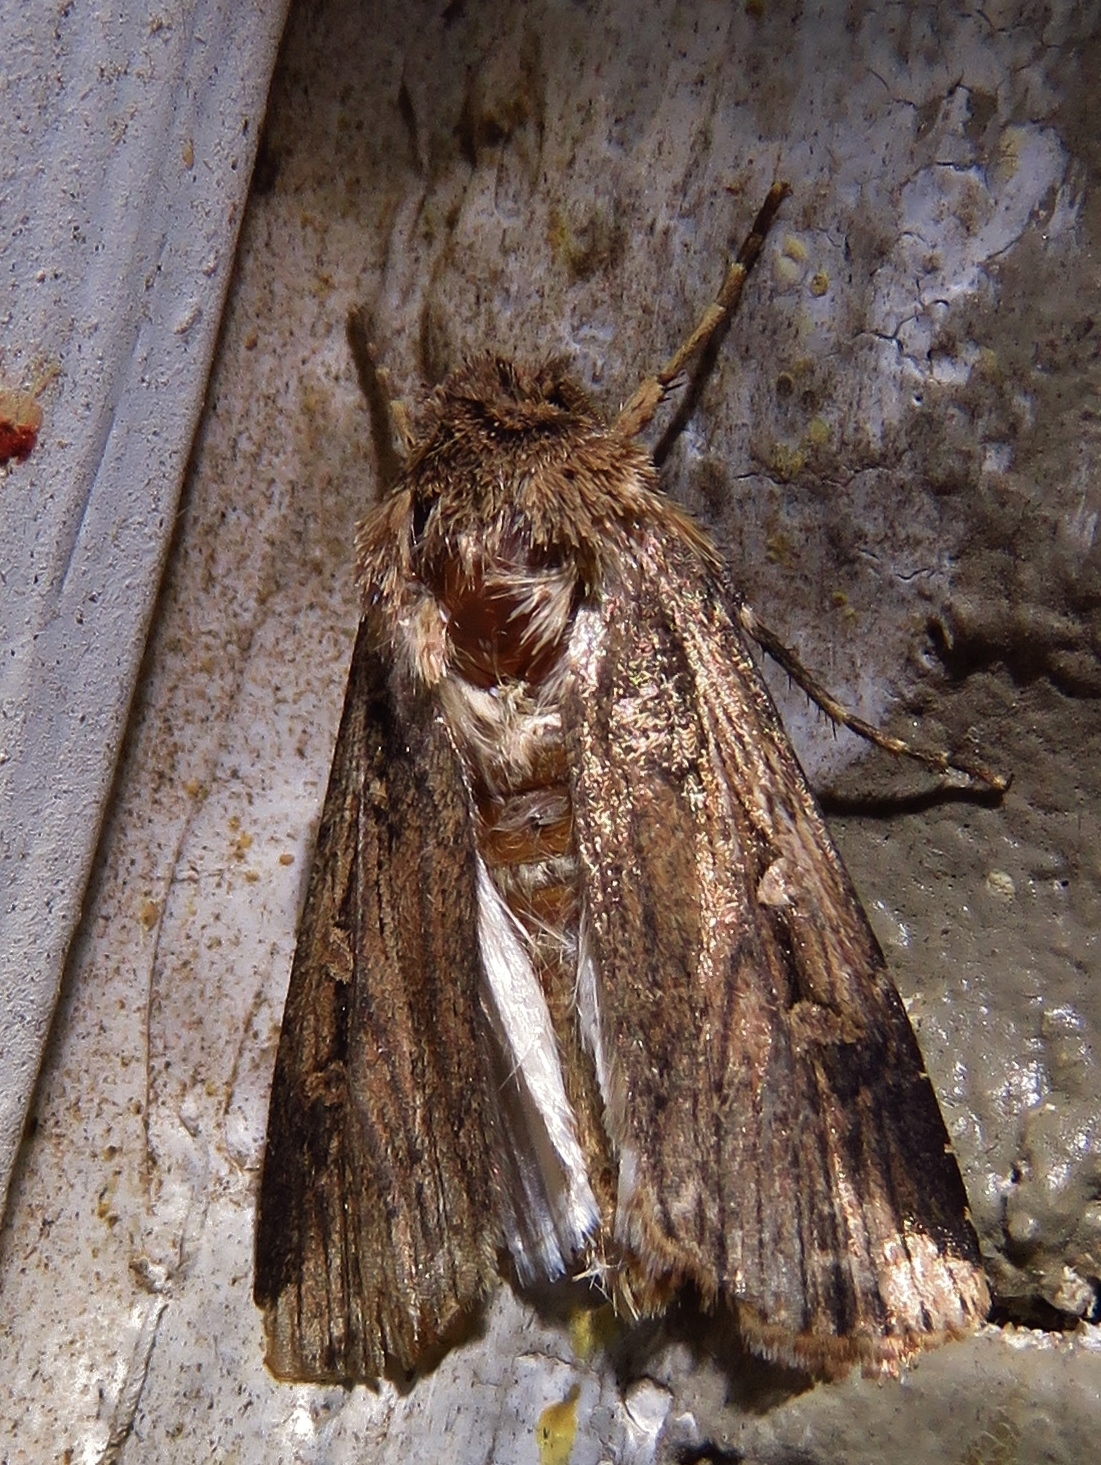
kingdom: Animalia
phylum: Arthropoda
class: Insecta
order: Lepidoptera
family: Noctuidae
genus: Feltia
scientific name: Feltia subterranea
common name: Granulate cutworm
